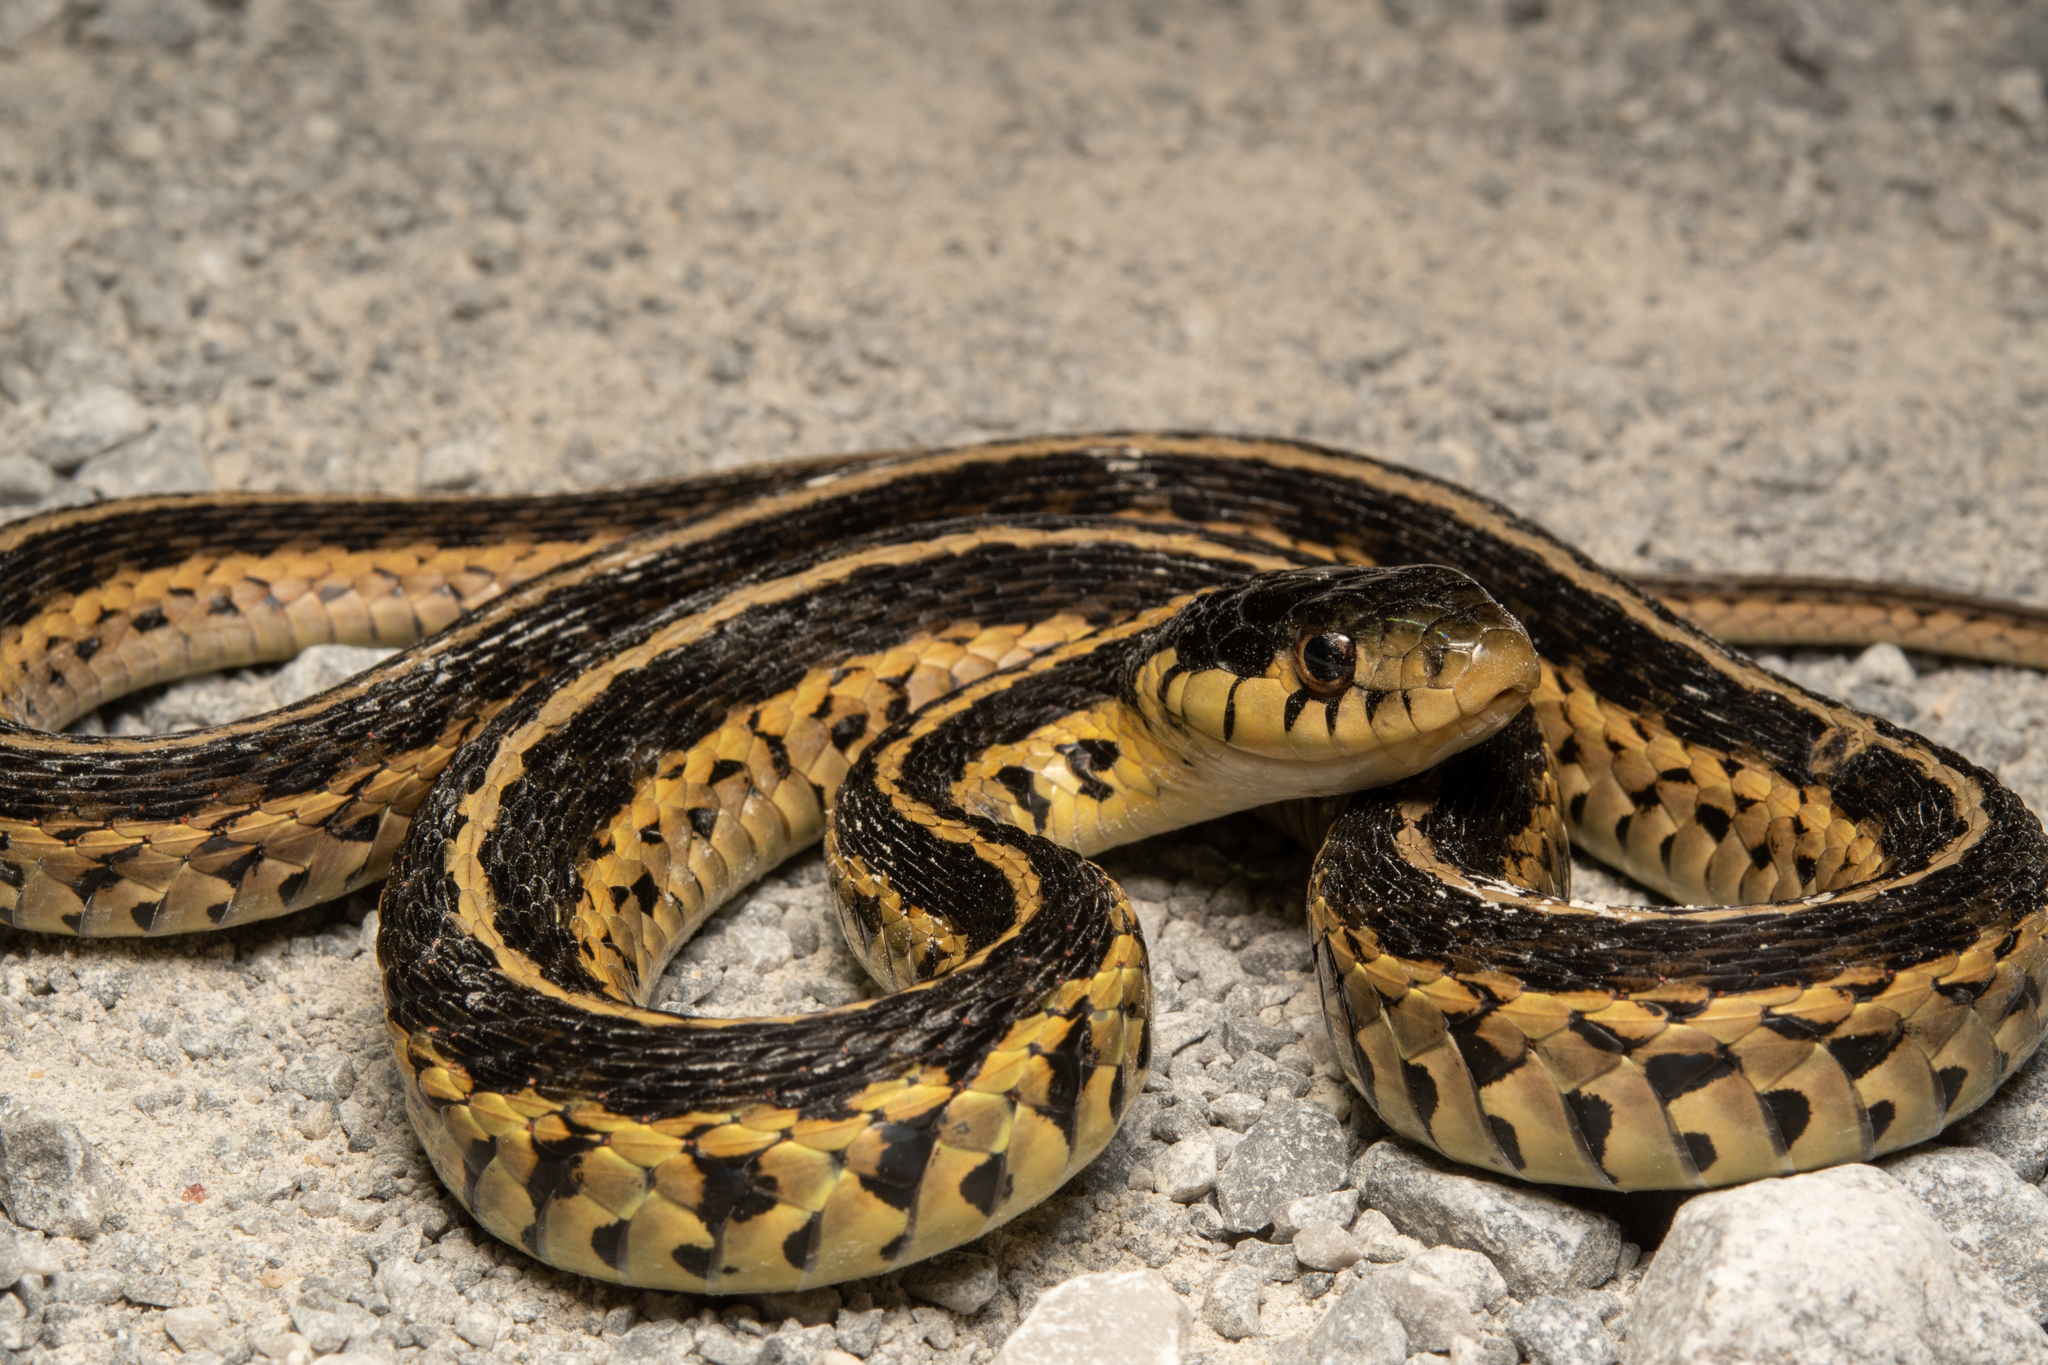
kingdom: Animalia
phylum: Chordata
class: Squamata
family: Colubridae
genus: Thamnophis
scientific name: Thamnophis sirtalis
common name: Common garter snake
